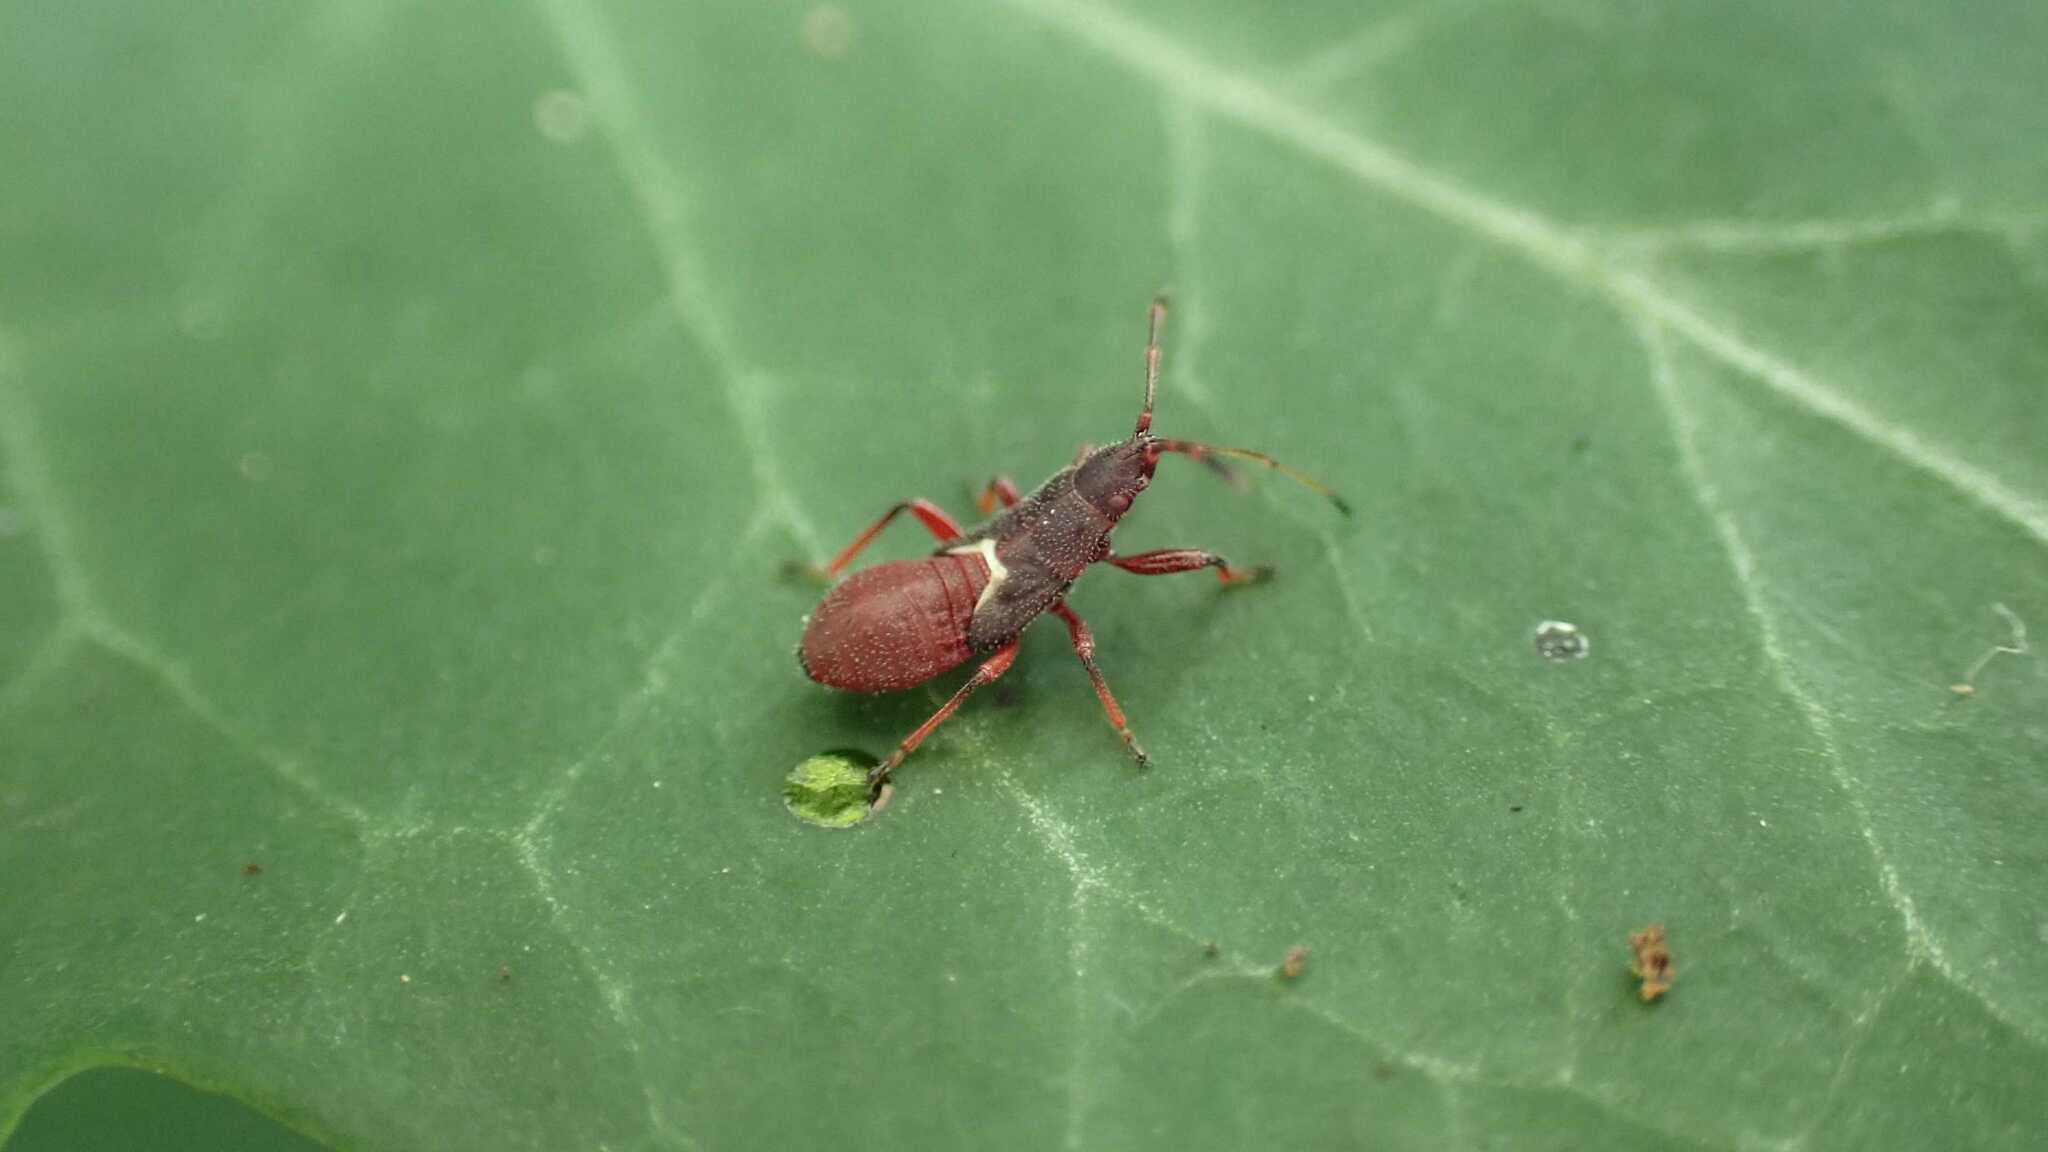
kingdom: Animalia
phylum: Arthropoda
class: Insecta
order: Hemiptera
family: Oxycarenidae
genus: Oxycarenus
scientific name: Oxycarenus lavaterae
